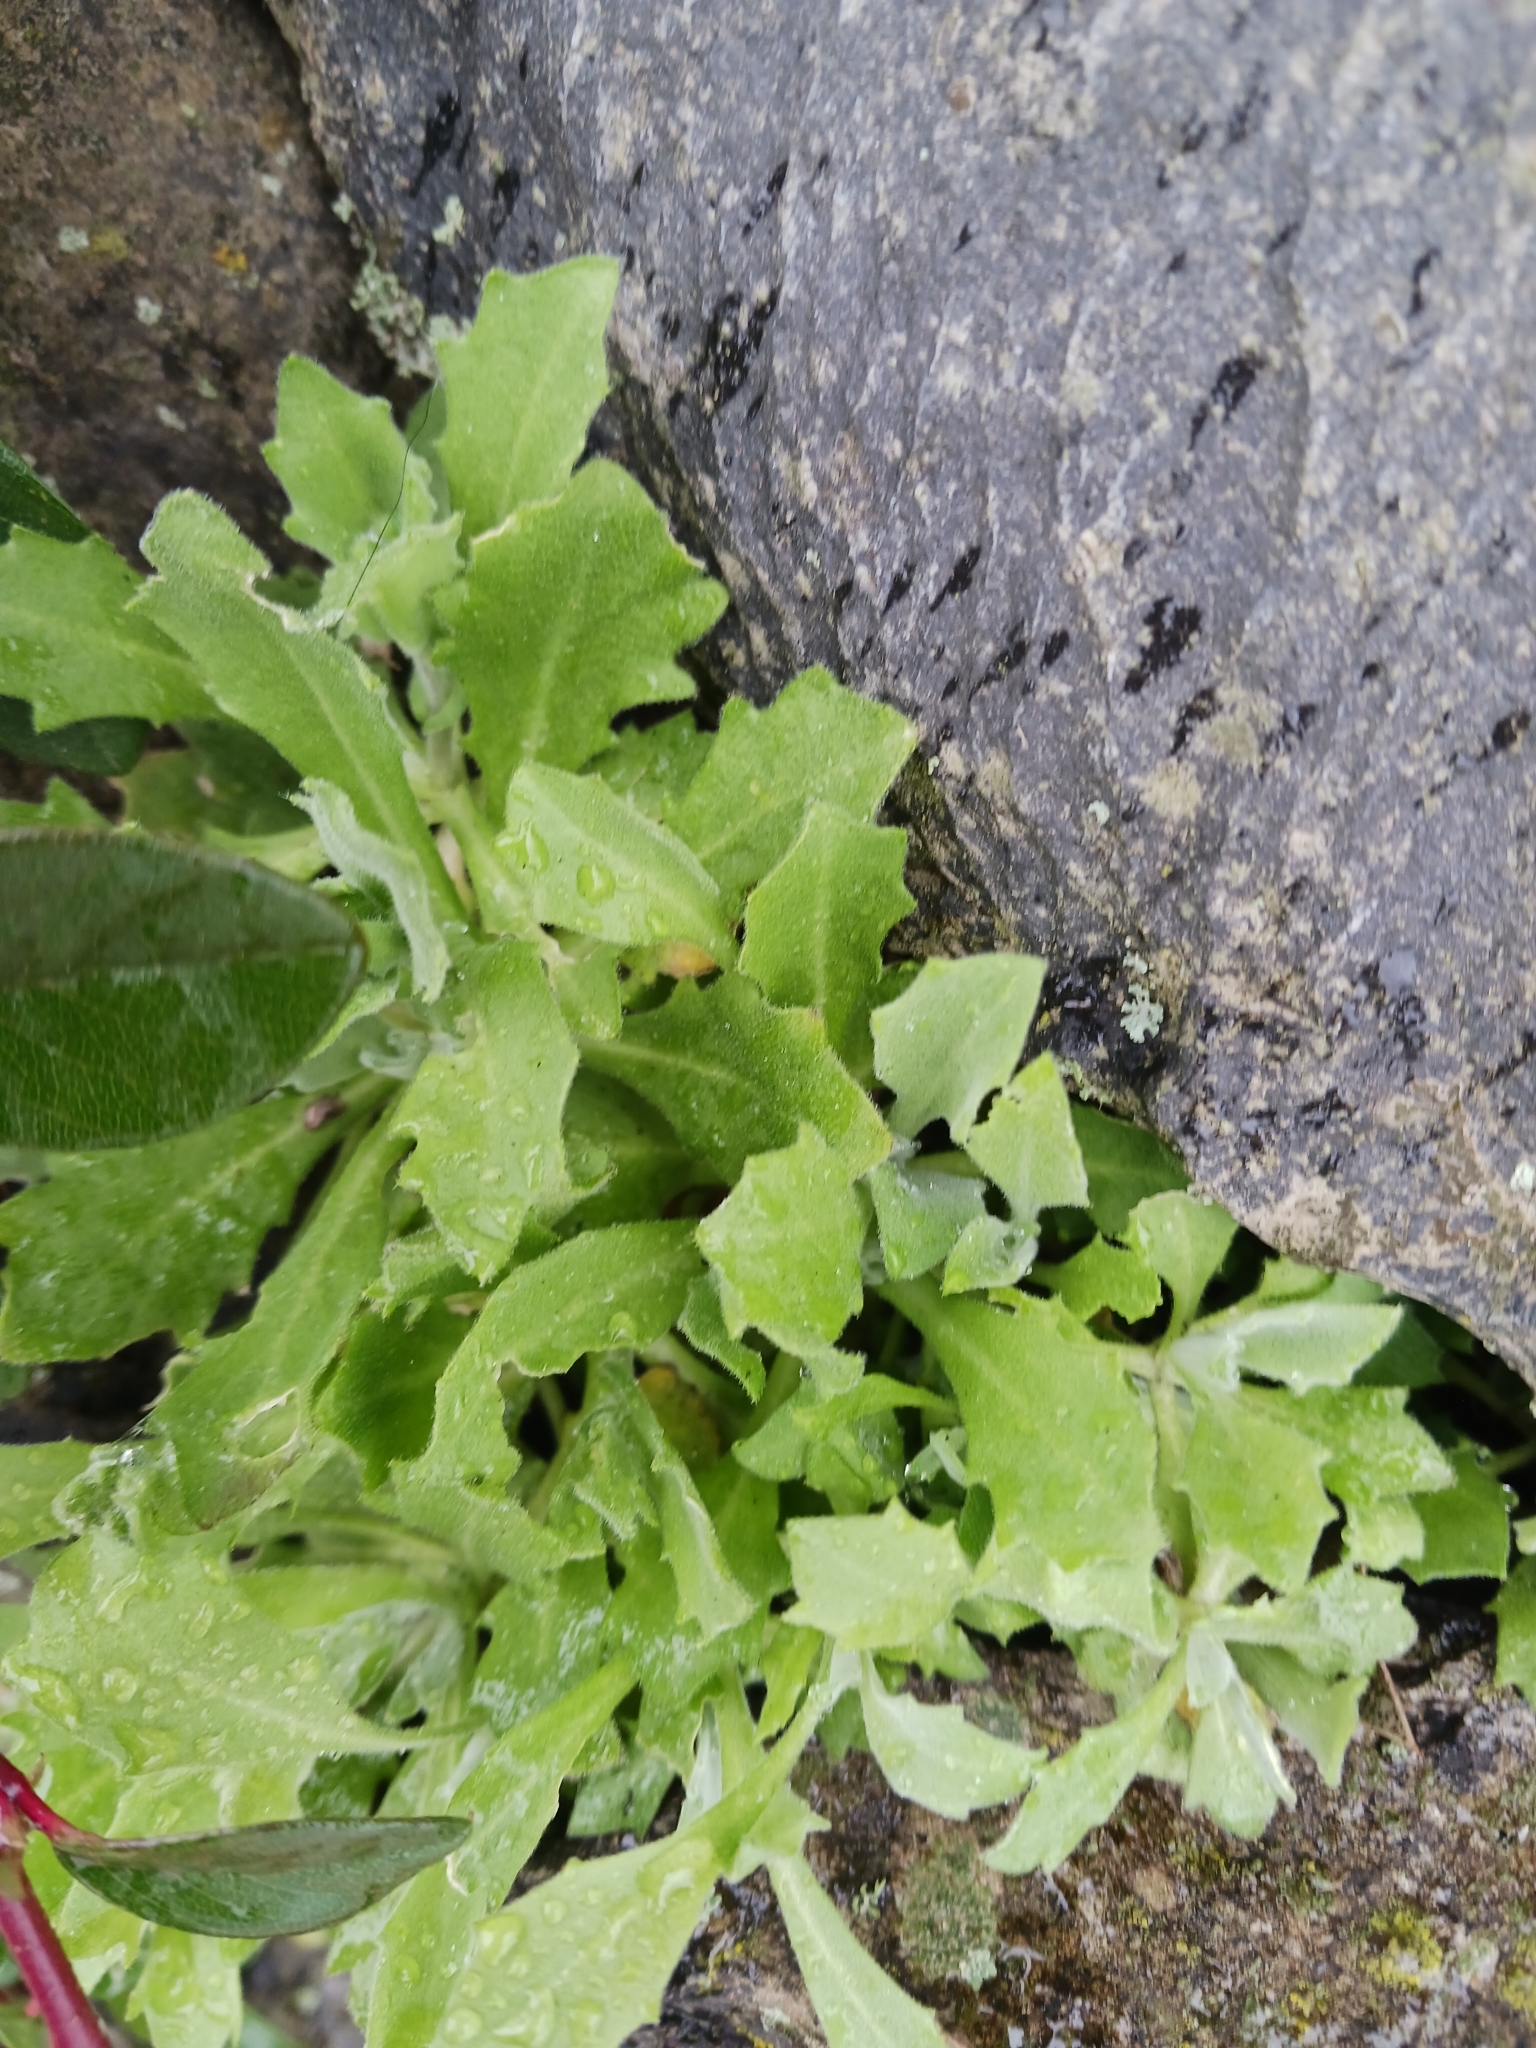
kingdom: Plantae
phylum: Tracheophyta
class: Magnoliopsida
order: Brassicales
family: Brassicaceae
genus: Arabis
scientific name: Arabis caucasica
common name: Gray rockcress
